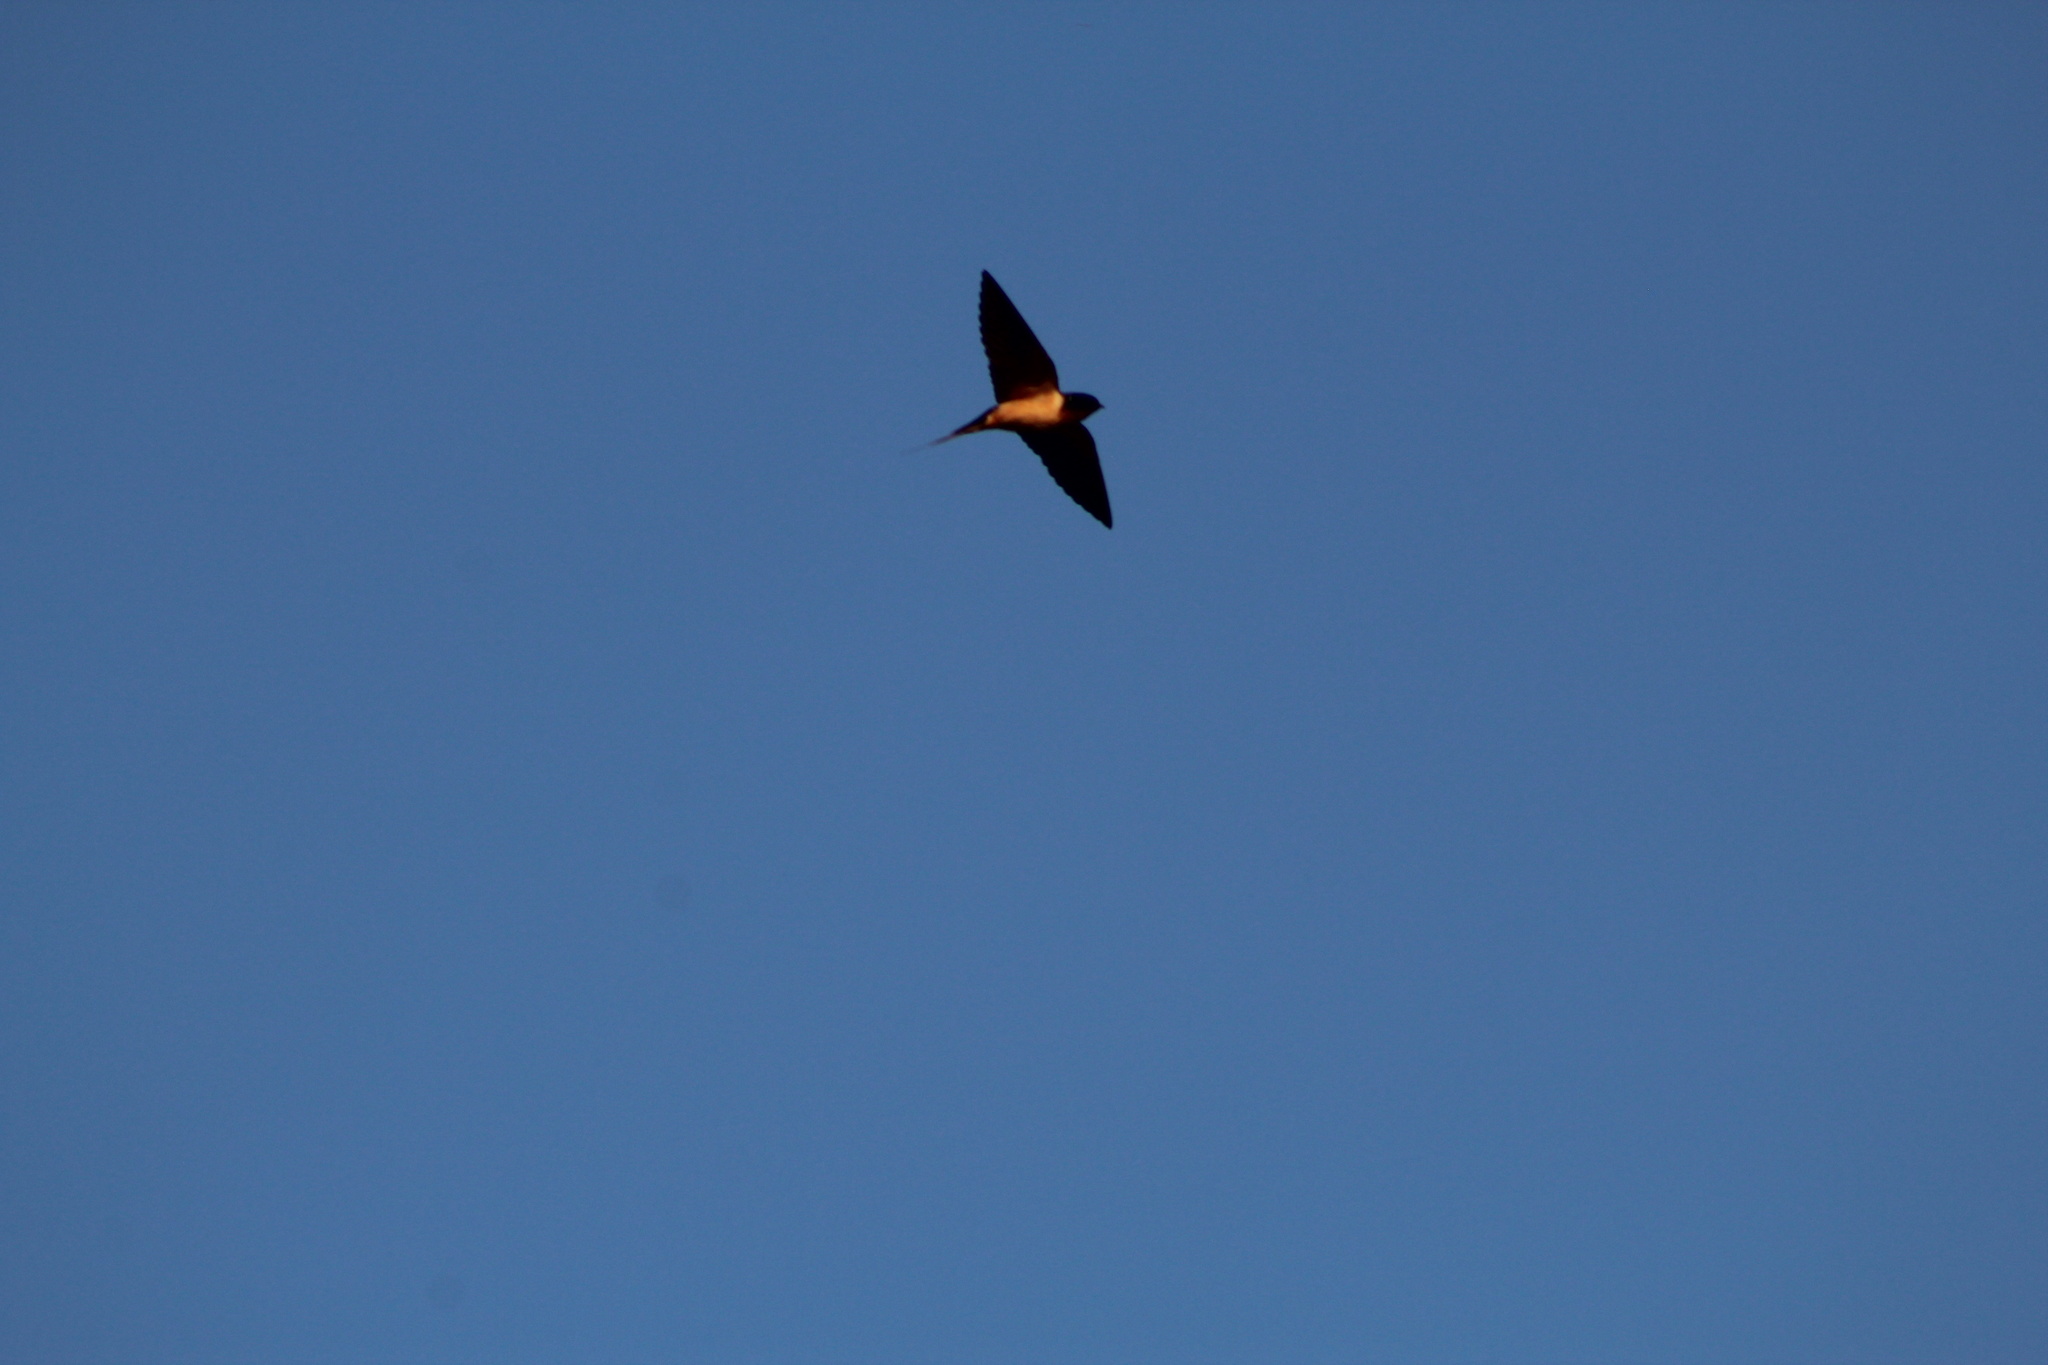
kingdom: Animalia
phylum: Chordata
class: Aves
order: Passeriformes
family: Hirundinidae
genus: Hirundo
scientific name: Hirundo rustica
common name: Barn swallow
